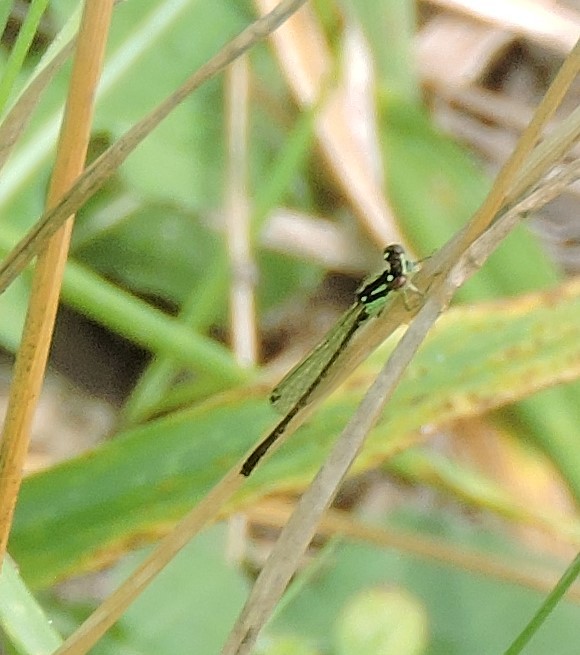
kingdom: Animalia
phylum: Arthropoda
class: Insecta
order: Odonata
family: Coenagrionidae
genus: Ischnura
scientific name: Ischnura posita
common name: Fragile forktail
